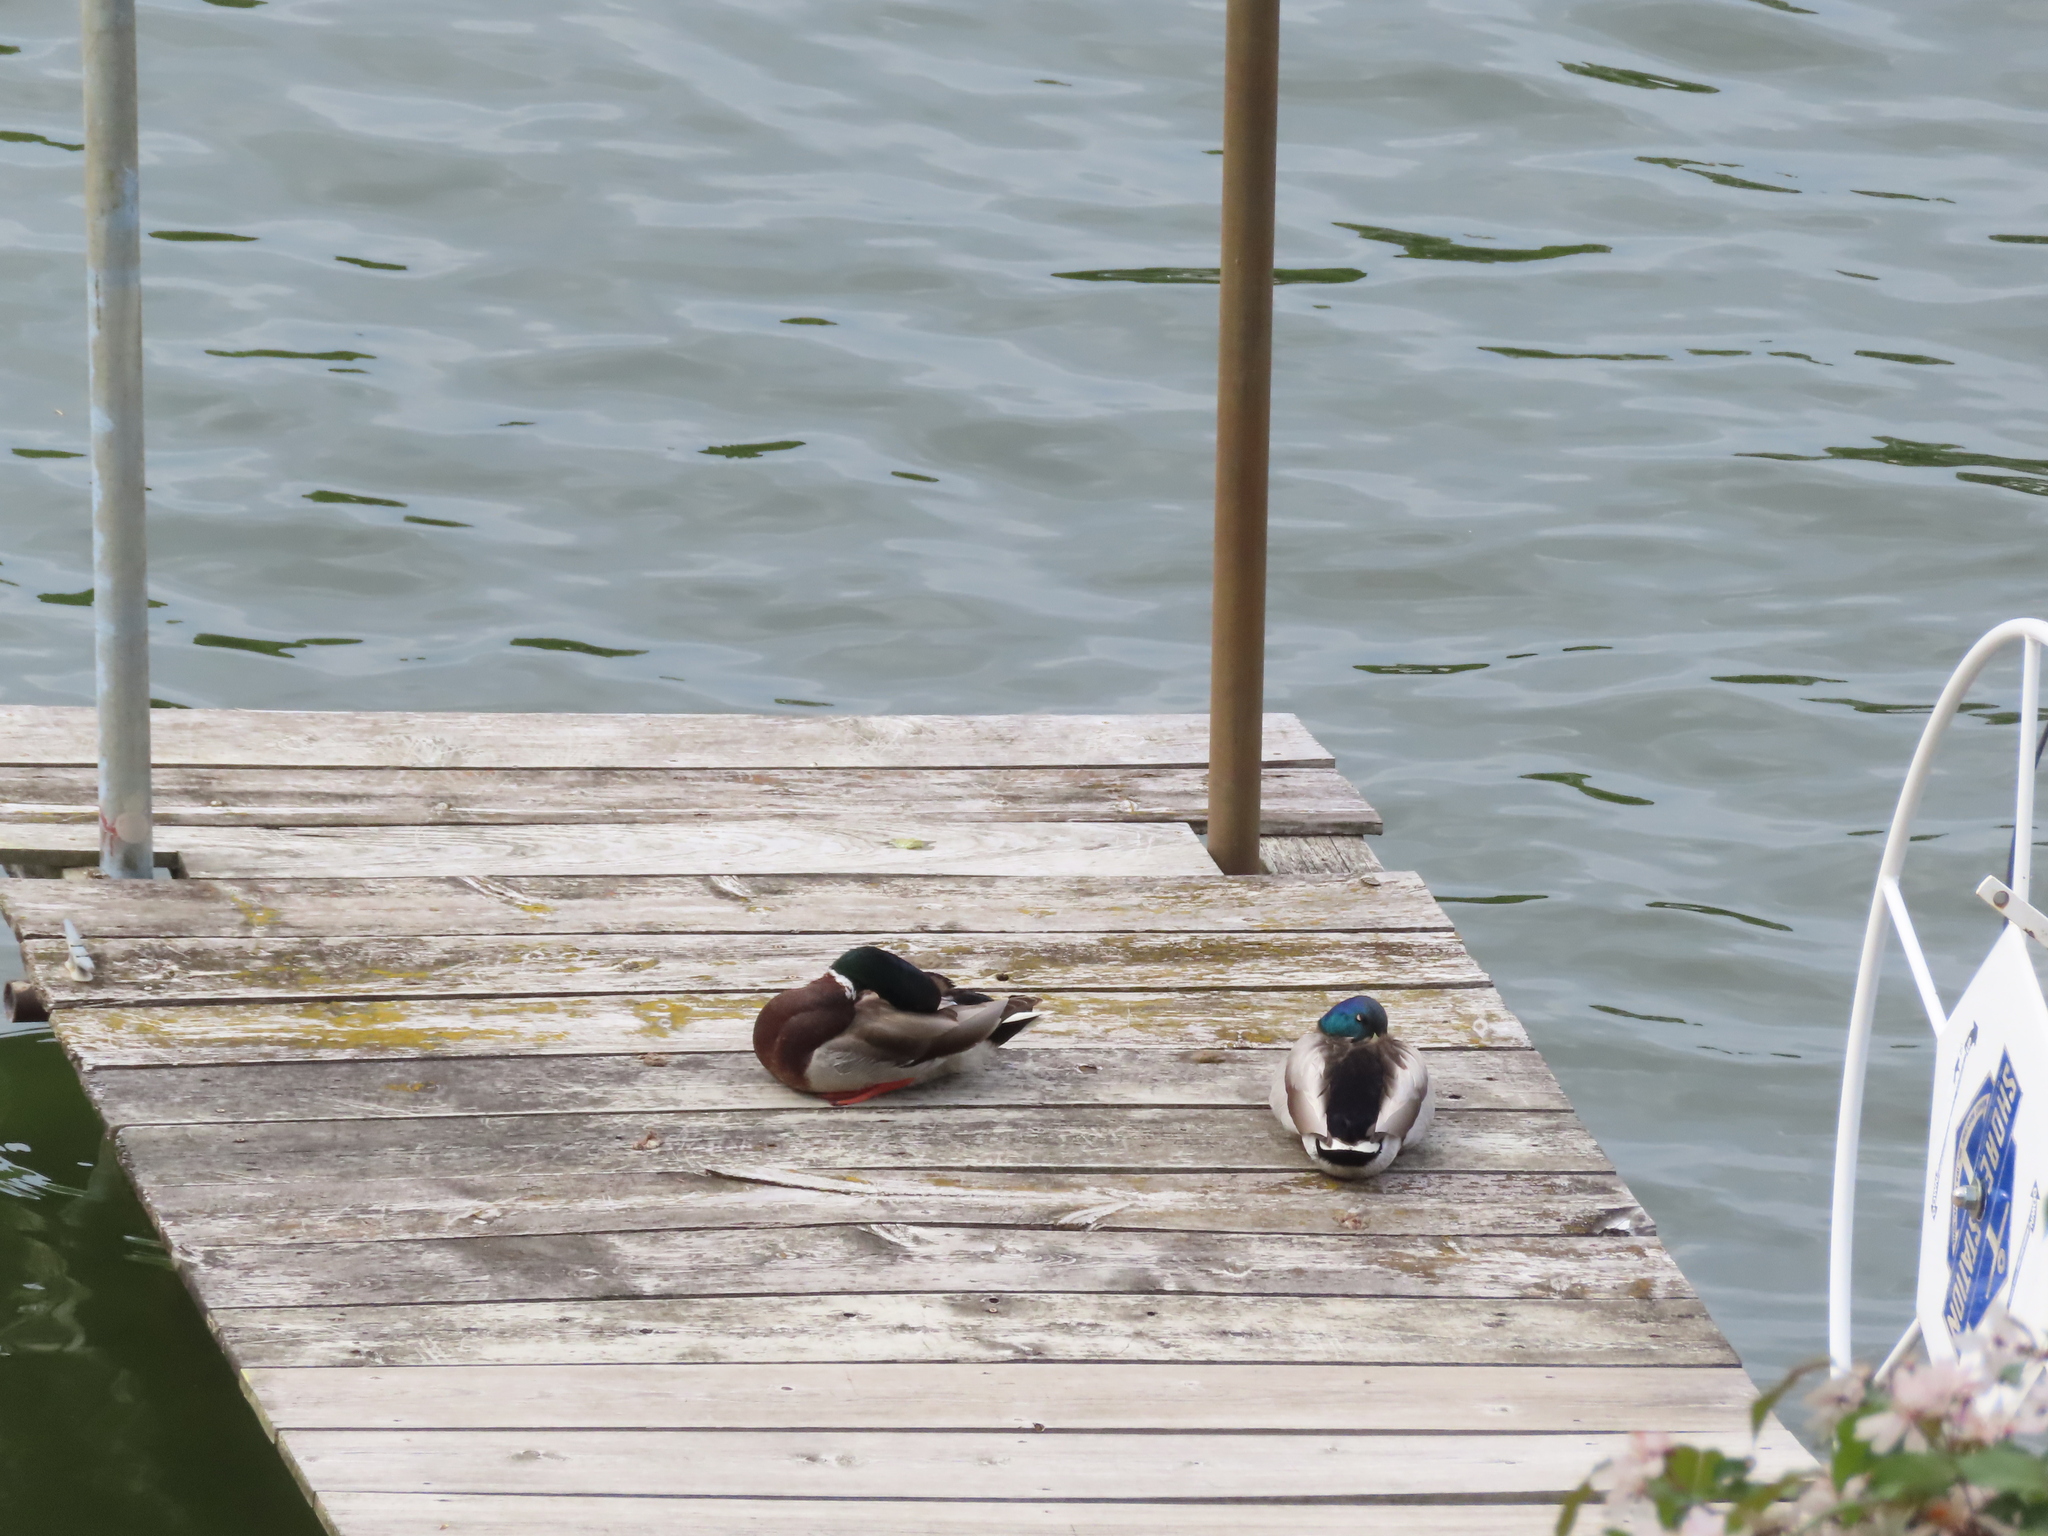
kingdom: Animalia
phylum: Chordata
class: Aves
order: Anseriformes
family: Anatidae
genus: Anas
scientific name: Anas platyrhynchos
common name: Mallard
